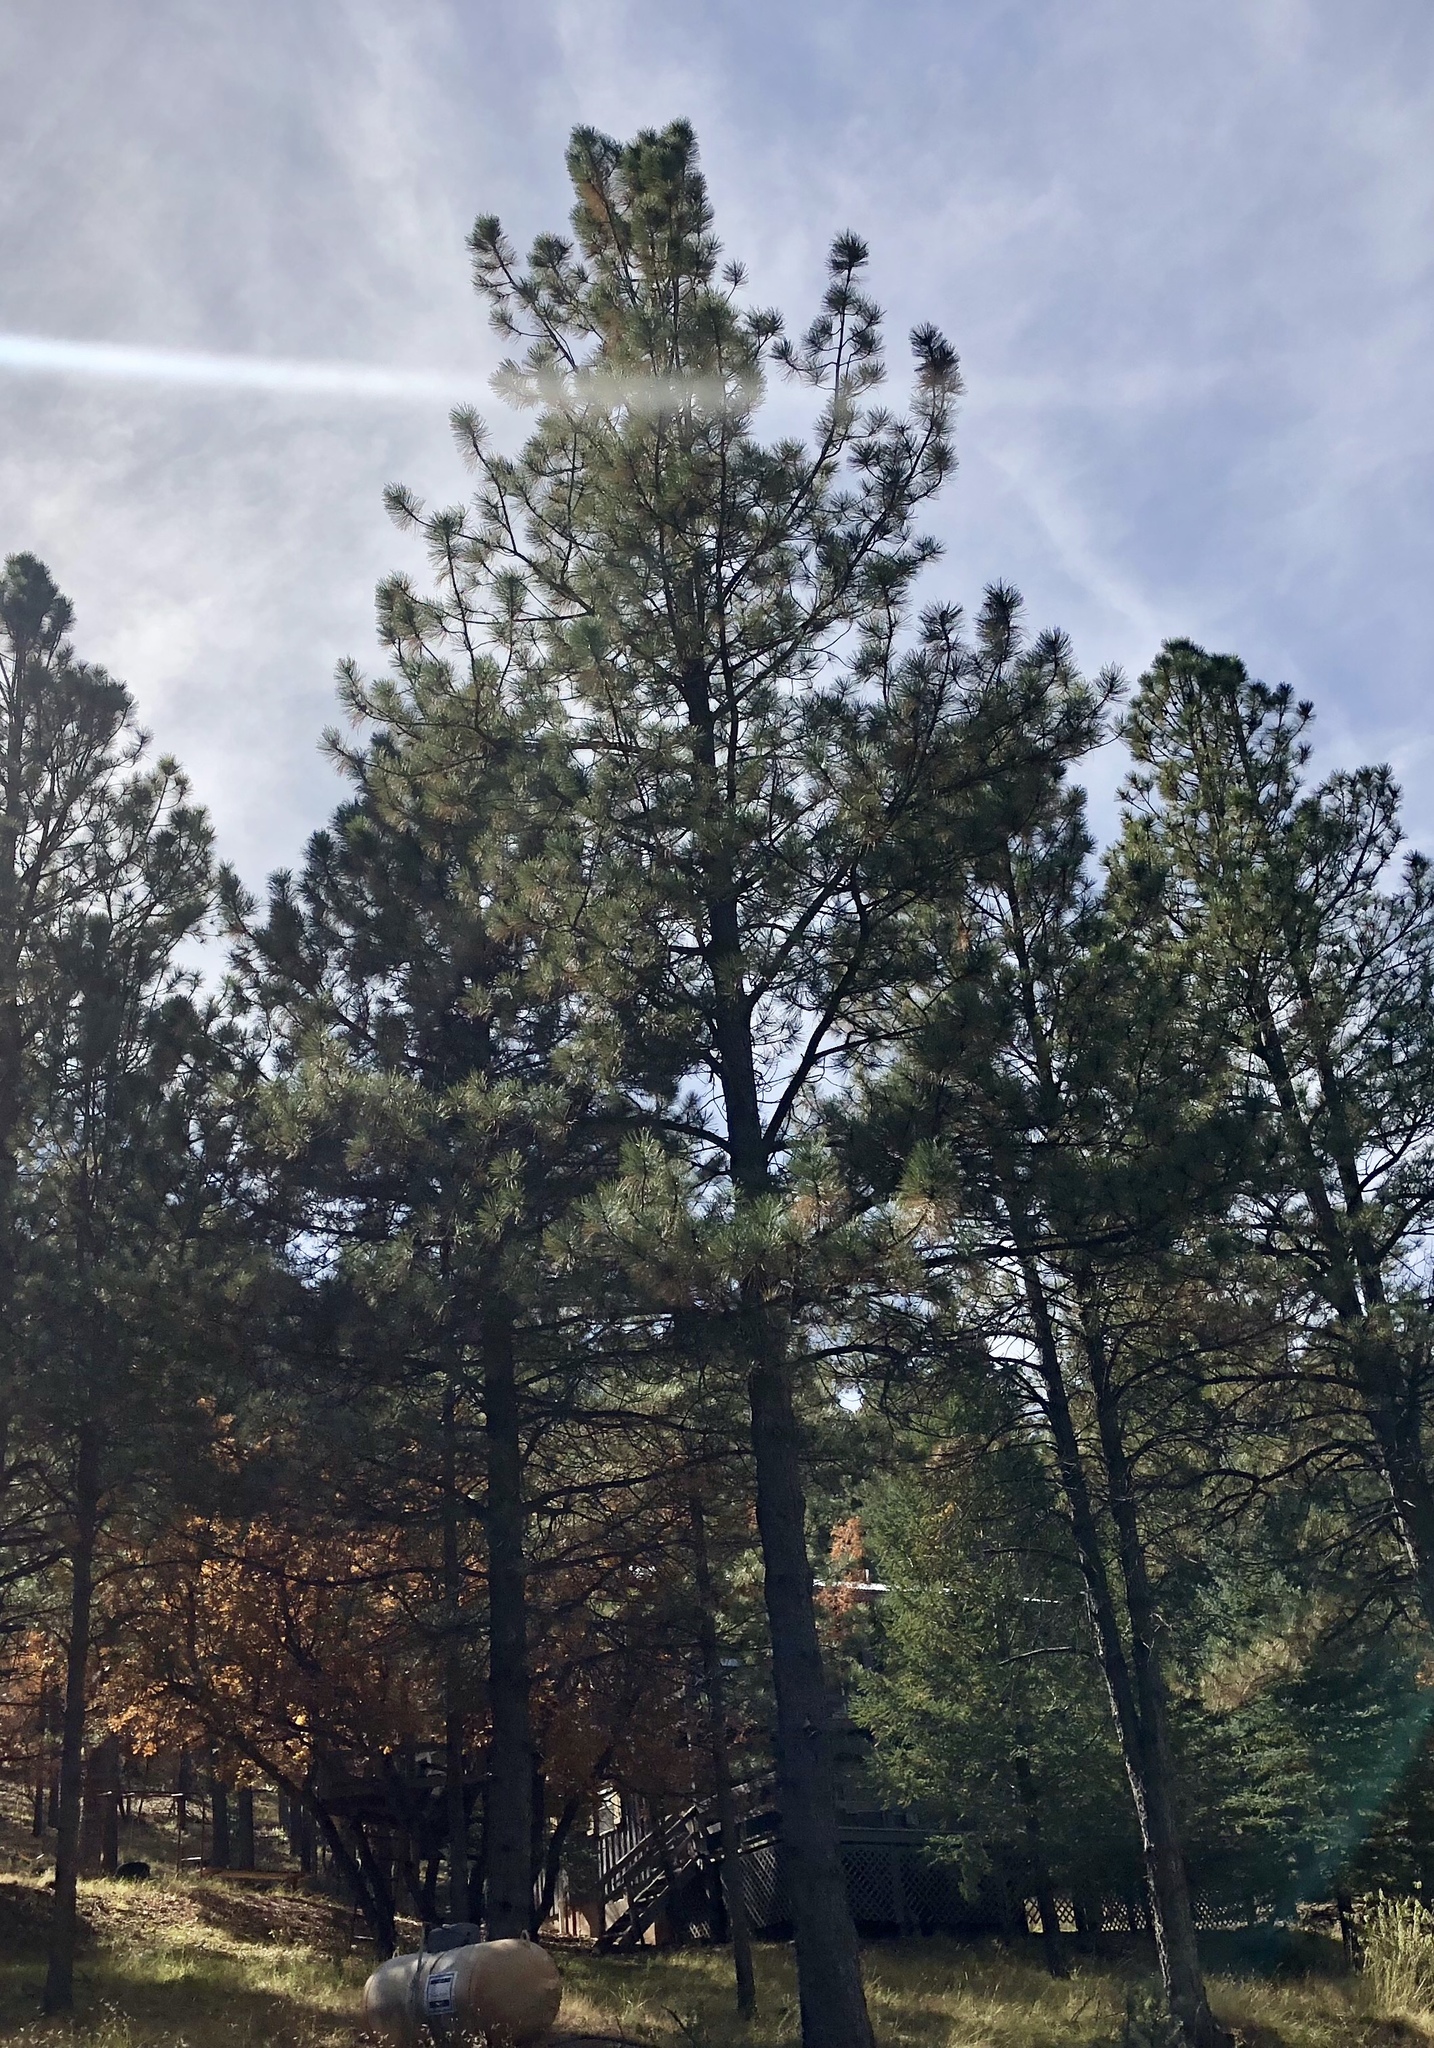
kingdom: Plantae
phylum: Tracheophyta
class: Pinopsida
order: Pinales
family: Pinaceae
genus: Pinus
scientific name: Pinus ponderosa
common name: Western yellow-pine
